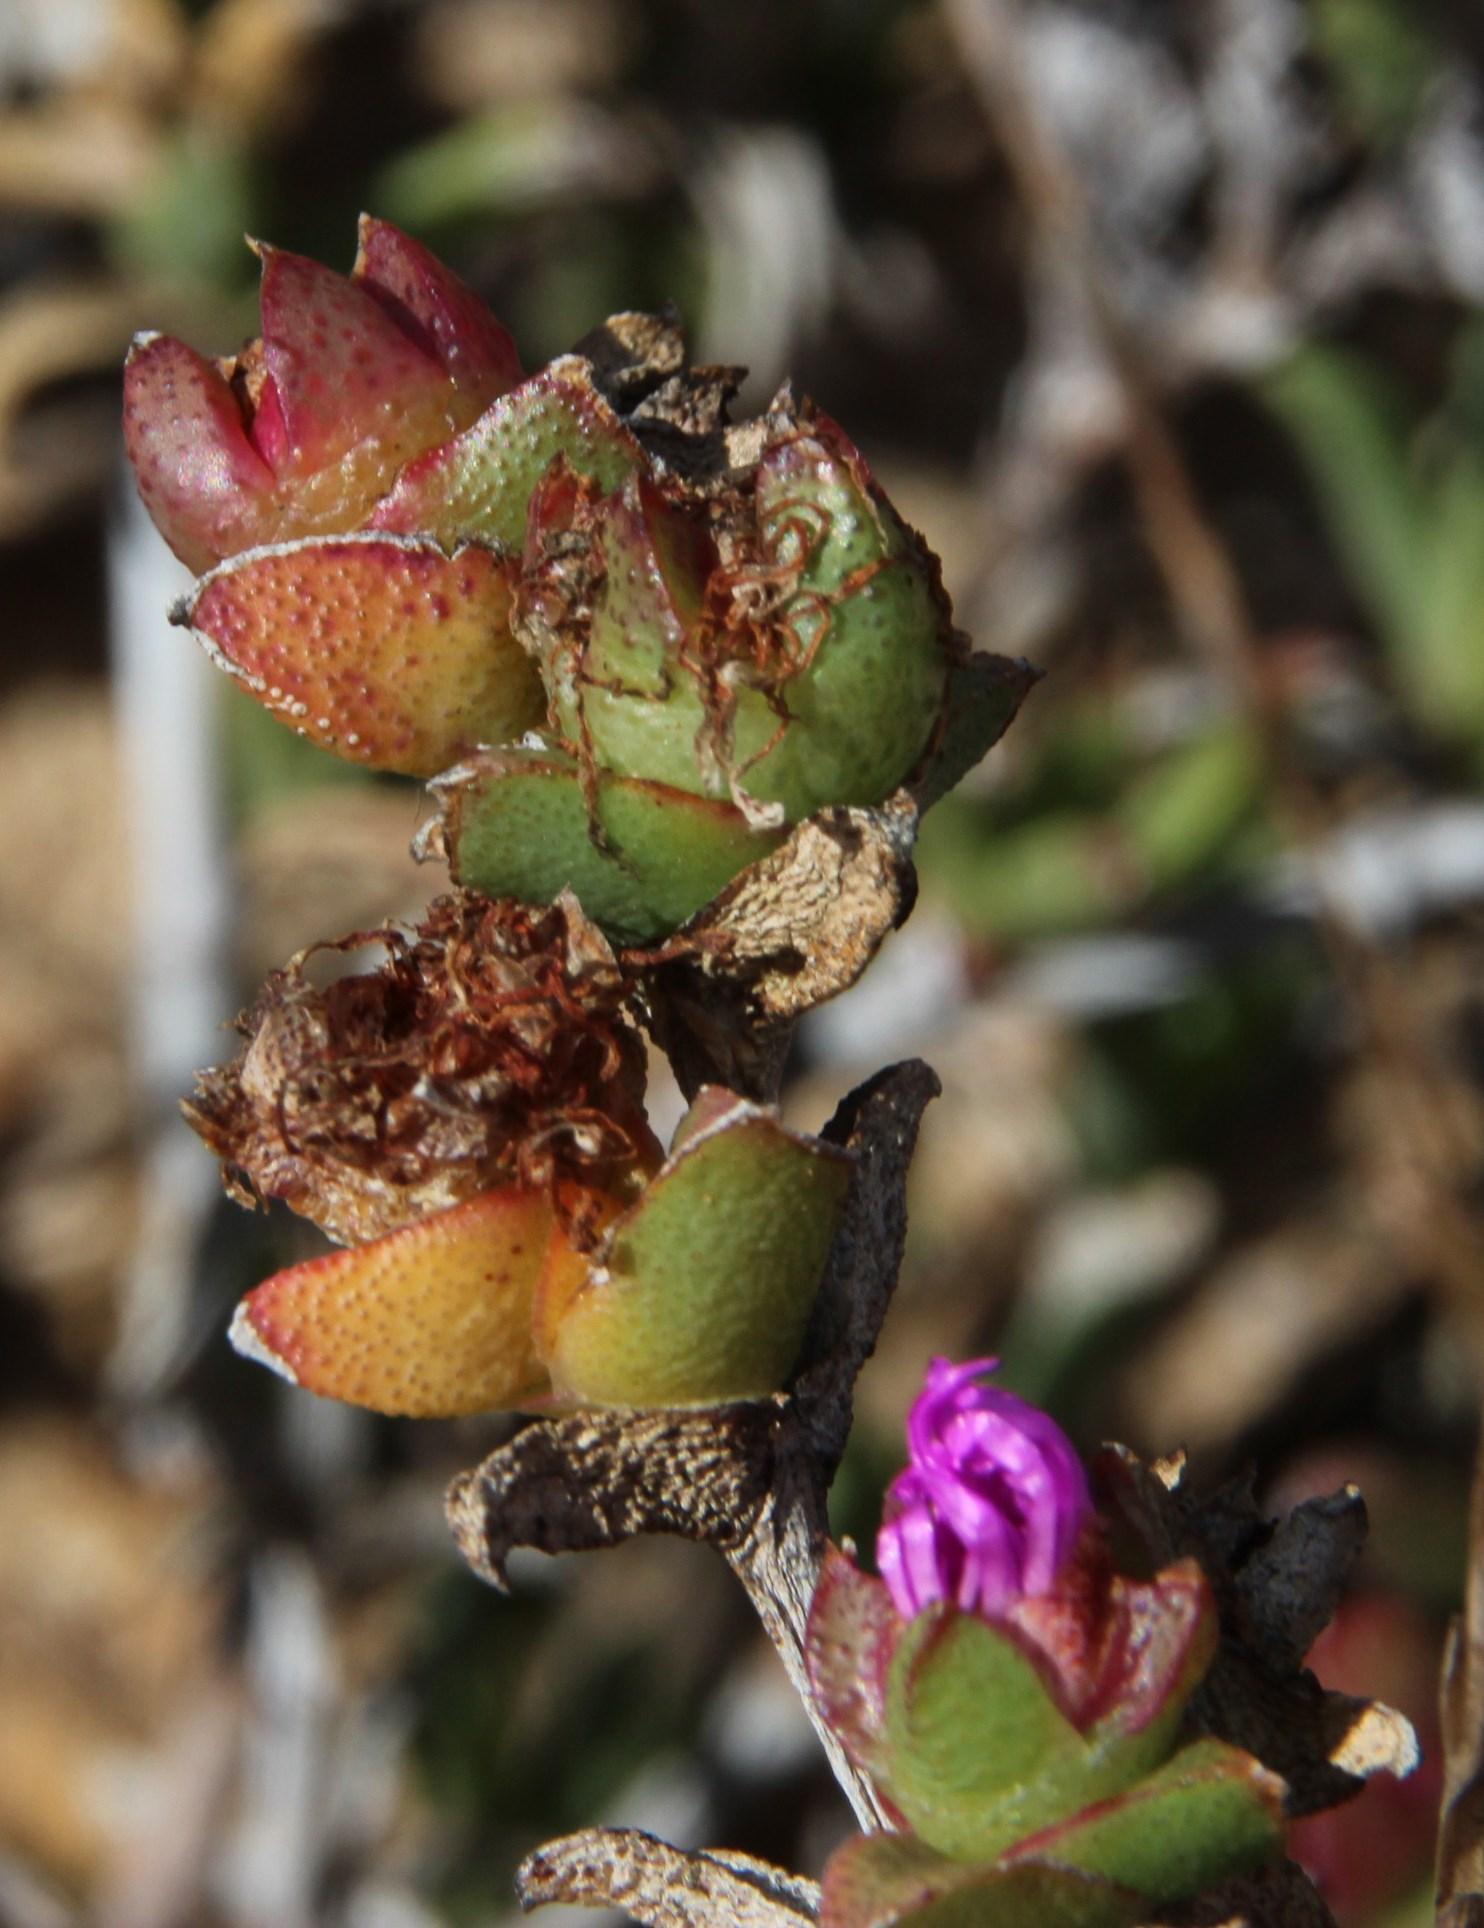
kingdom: Plantae
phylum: Tracheophyta
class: Magnoliopsida
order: Caryophyllales
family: Aizoaceae
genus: Erepsia
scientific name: Erepsia bracteata
